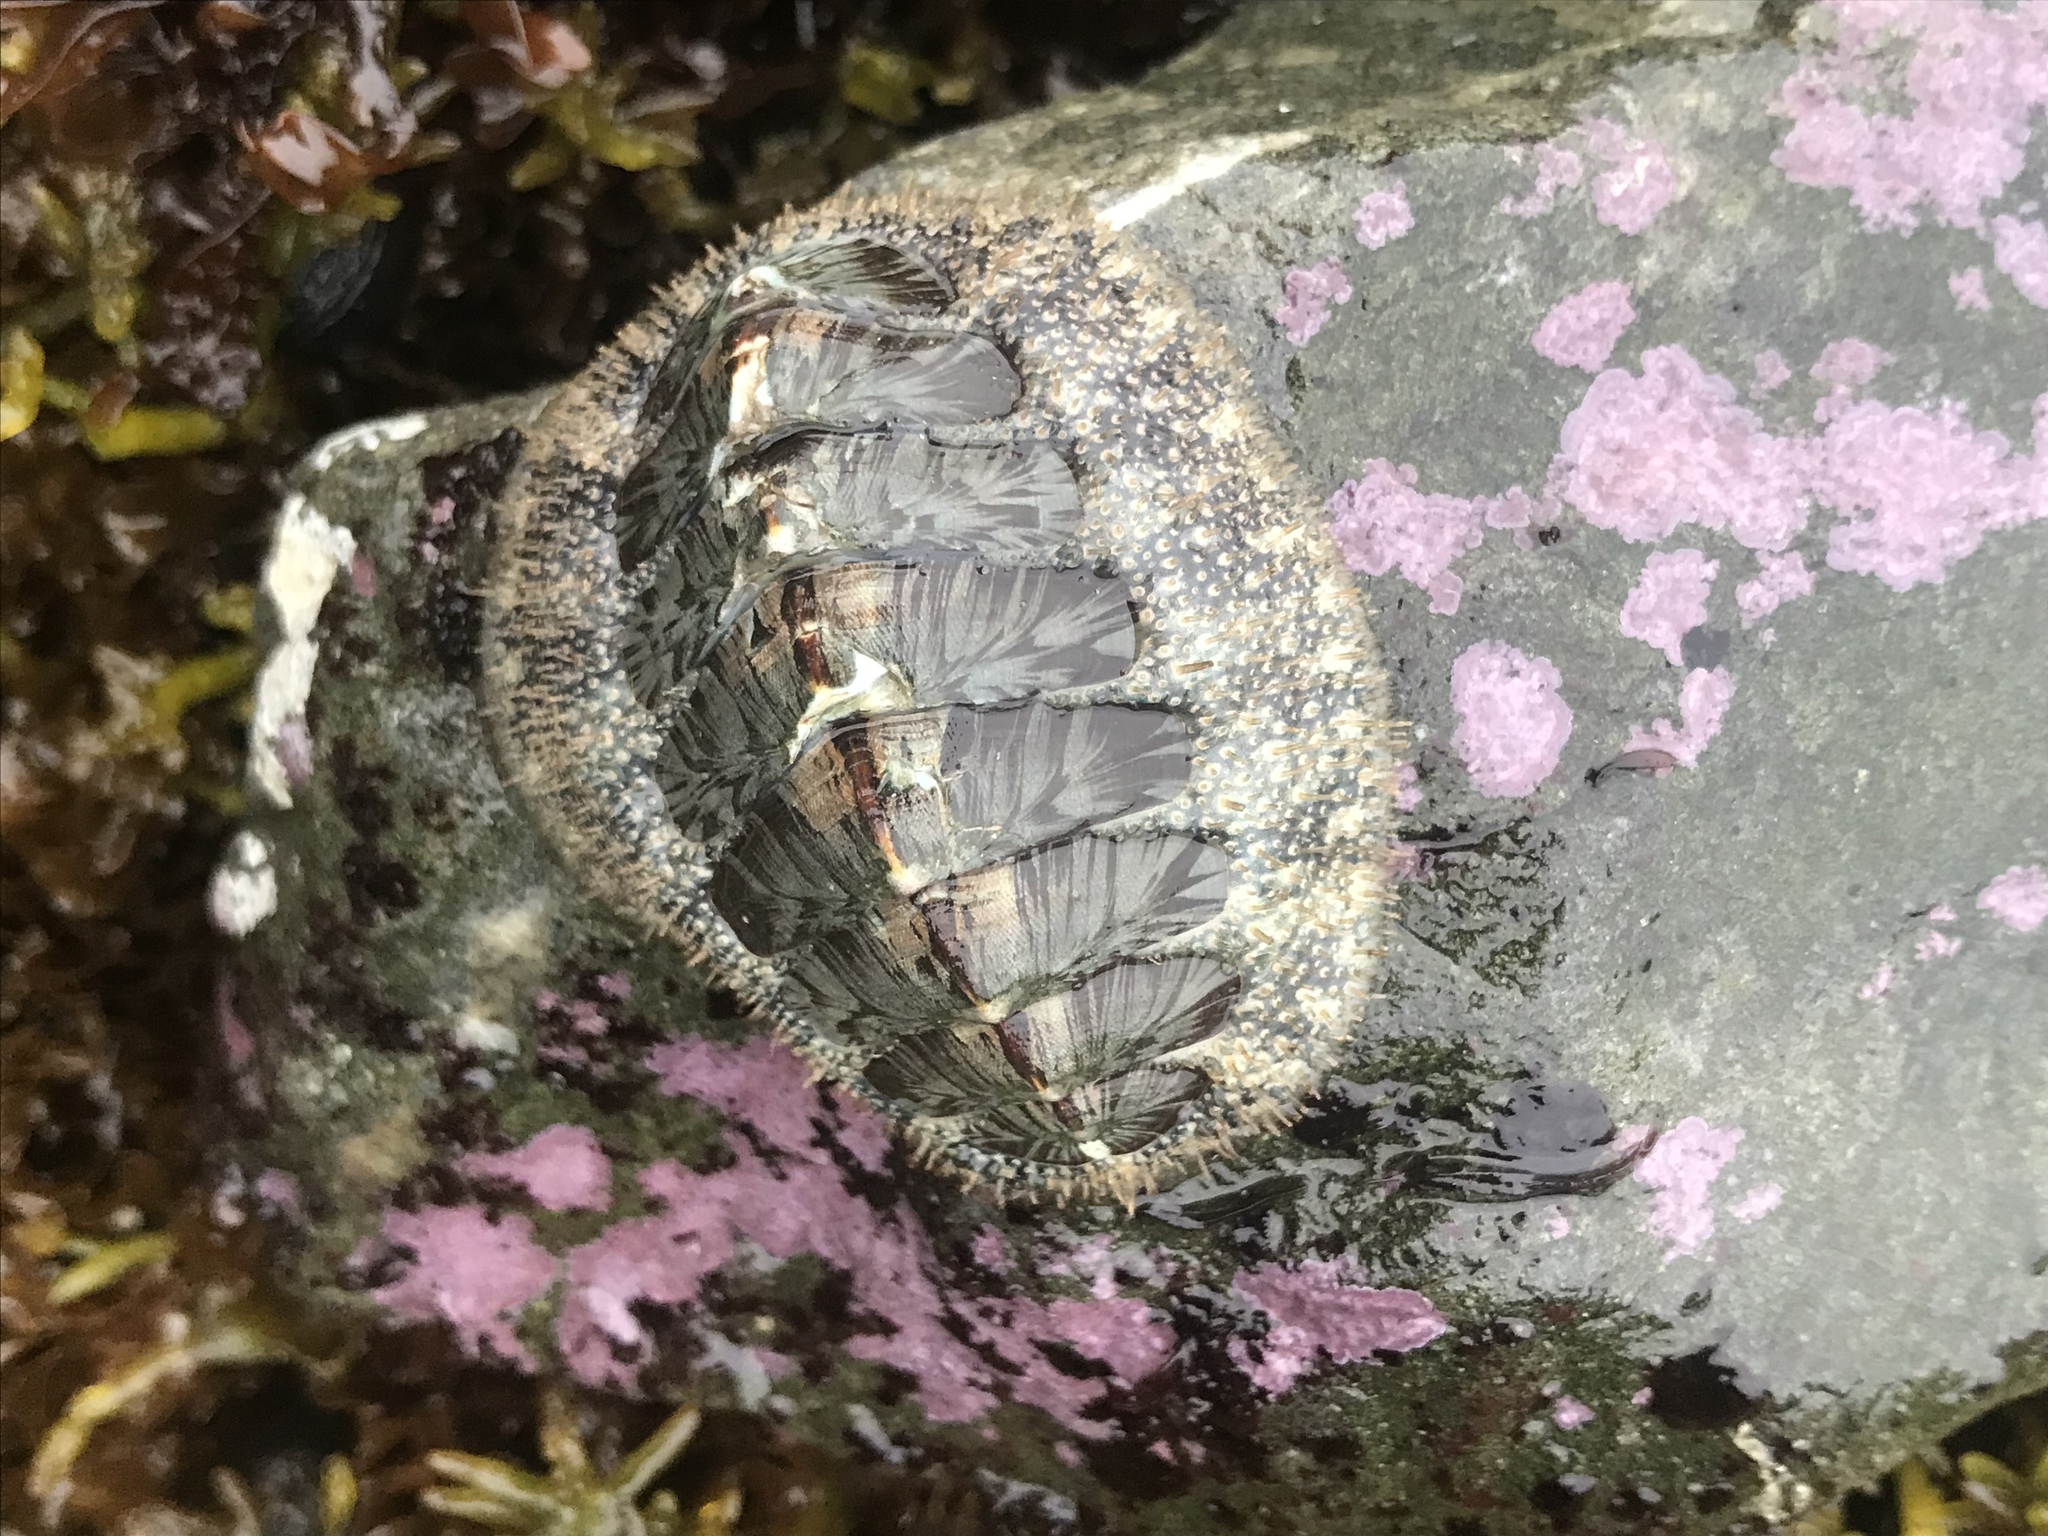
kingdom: Animalia
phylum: Mollusca
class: Polyplacophora
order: Chitonida
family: Mopaliidae
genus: Mopalia
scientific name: Mopalia lignosa
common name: Woody chiton
